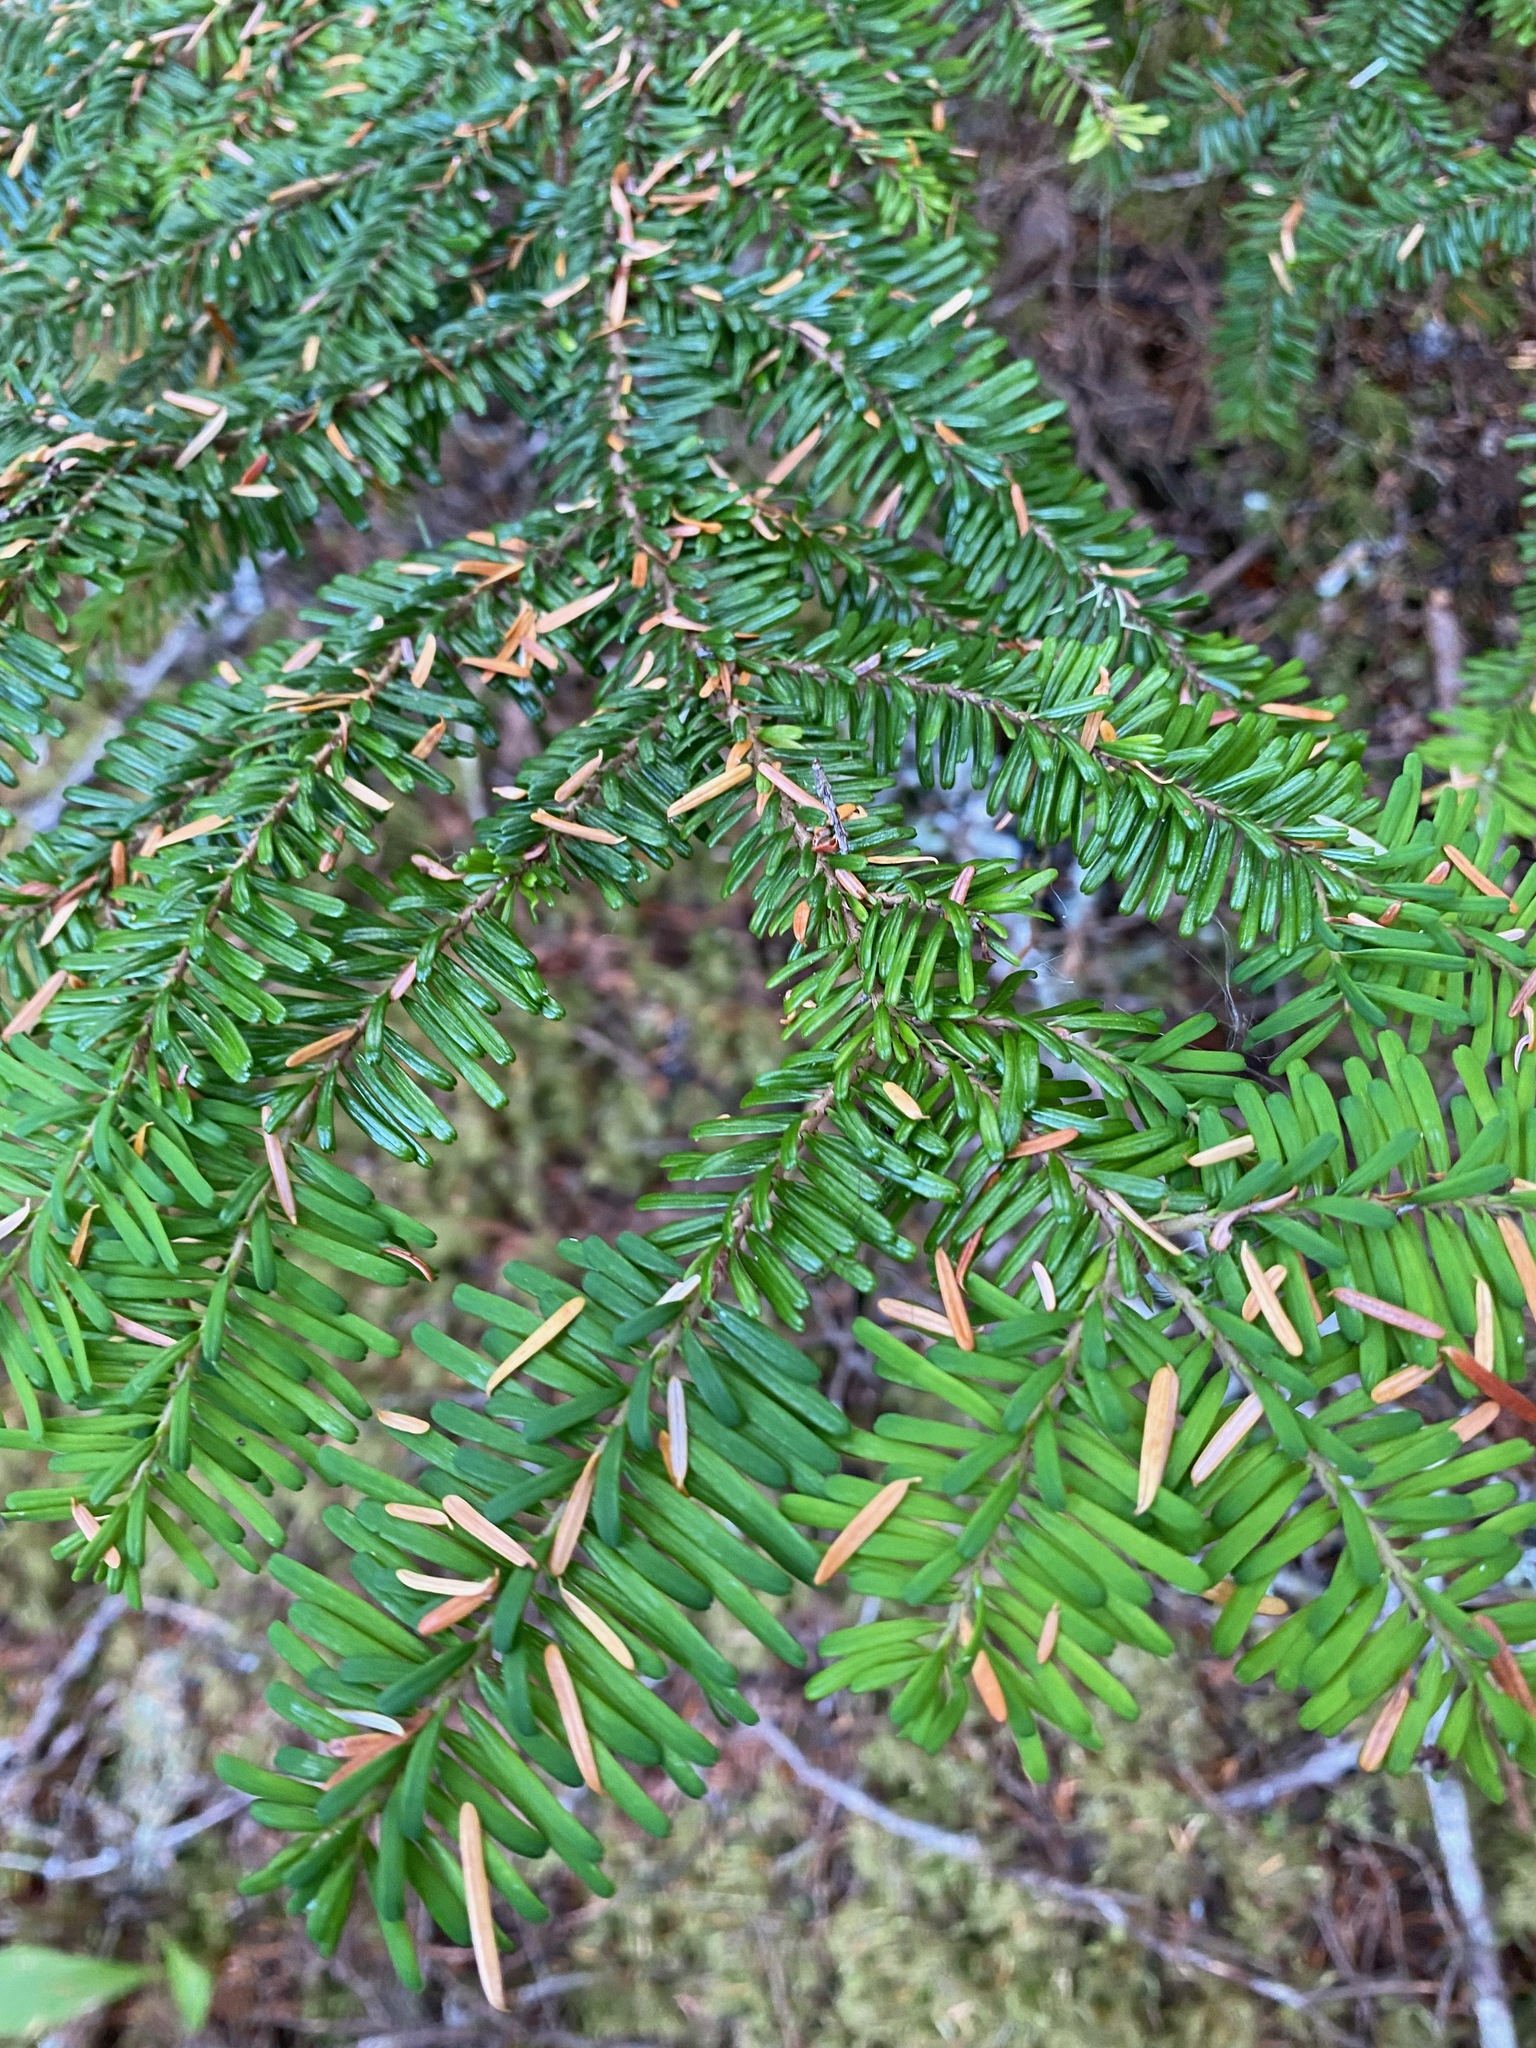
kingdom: Plantae
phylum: Tracheophyta
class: Pinopsida
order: Pinales
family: Pinaceae
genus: Abies
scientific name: Abies amabilis
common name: Pacific silver fir
